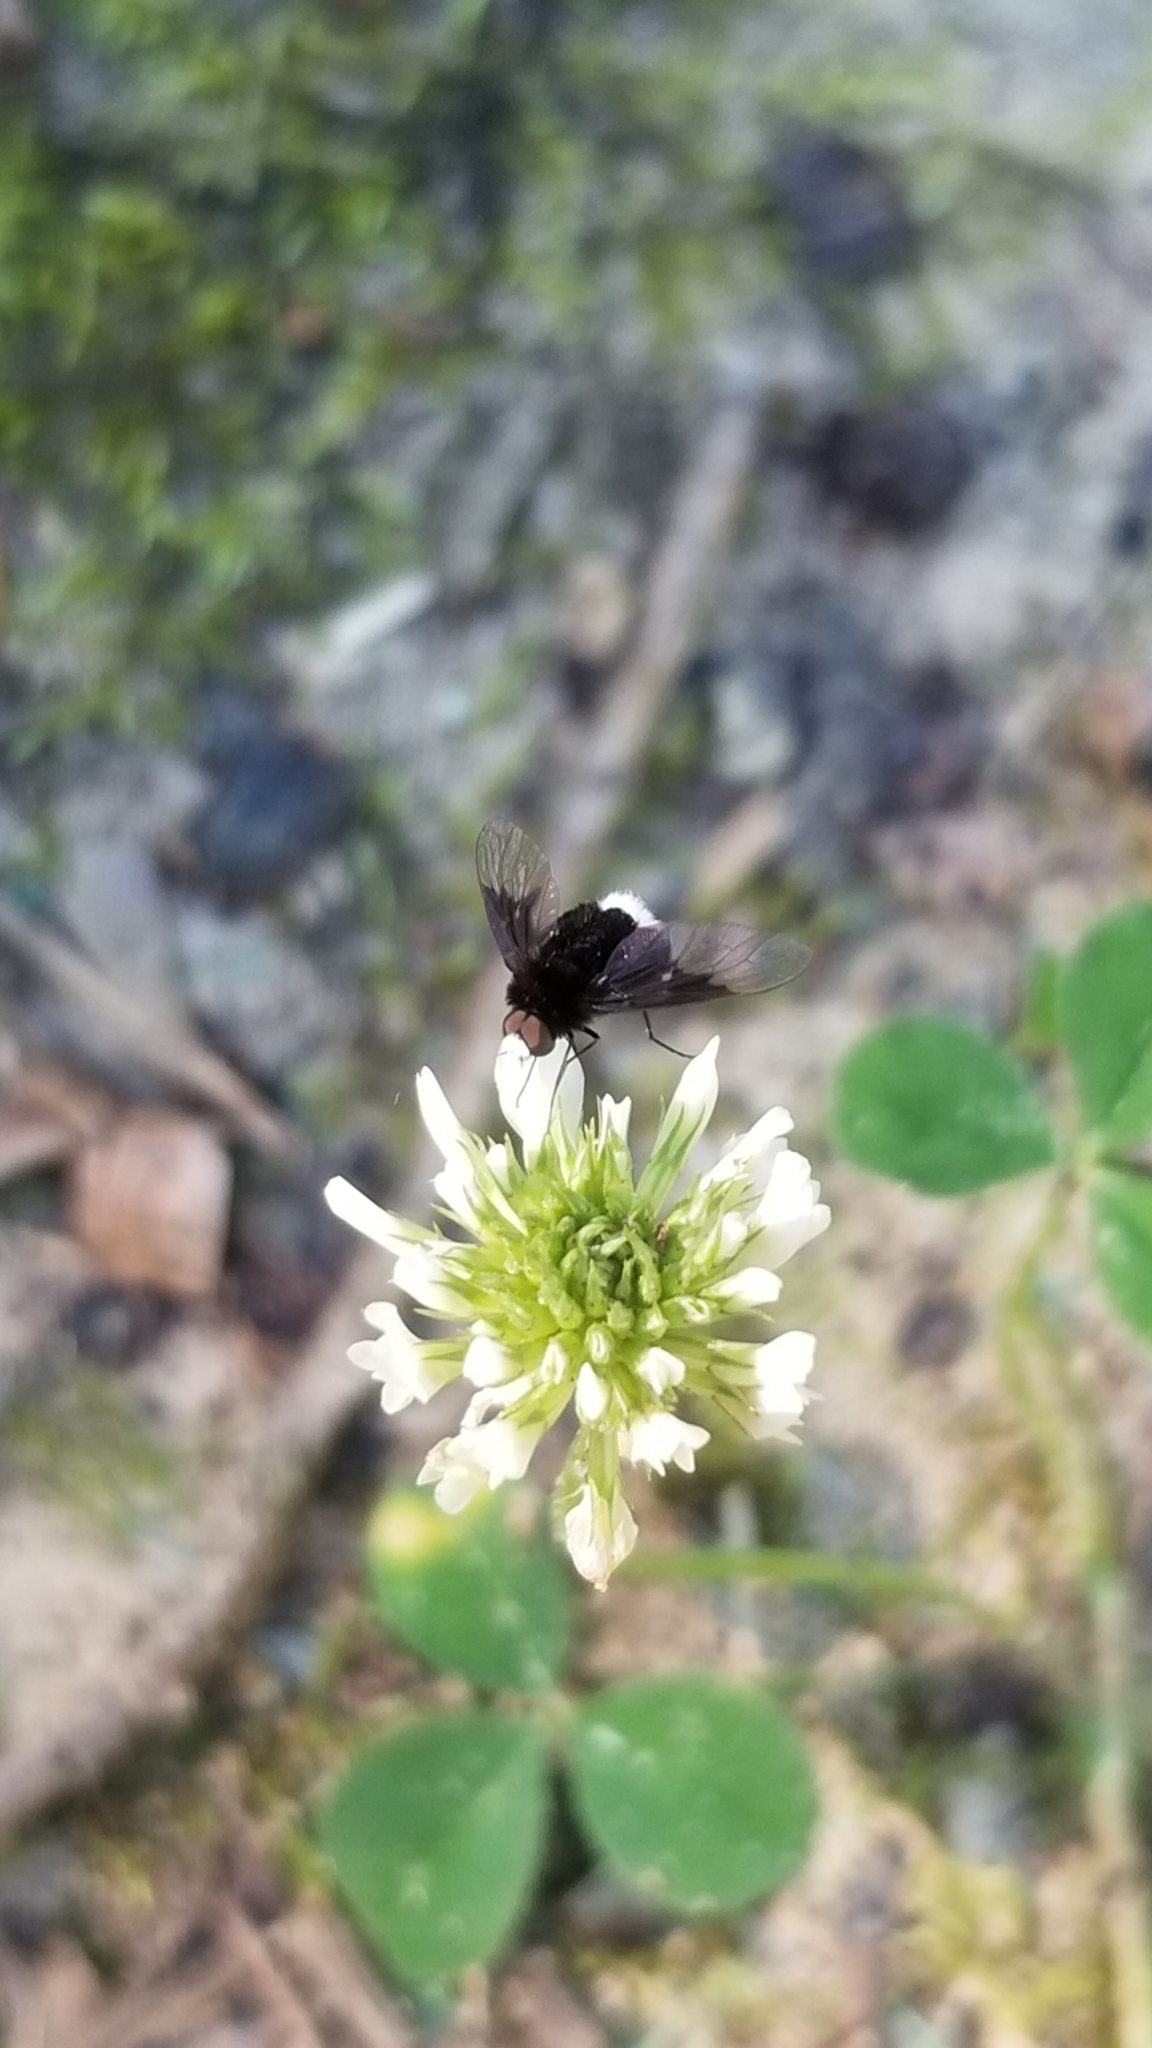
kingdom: Animalia
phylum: Arthropoda
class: Insecta
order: Diptera
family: Bombyliidae
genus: Ogcodocera
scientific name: Ogcodocera leucoprocta
